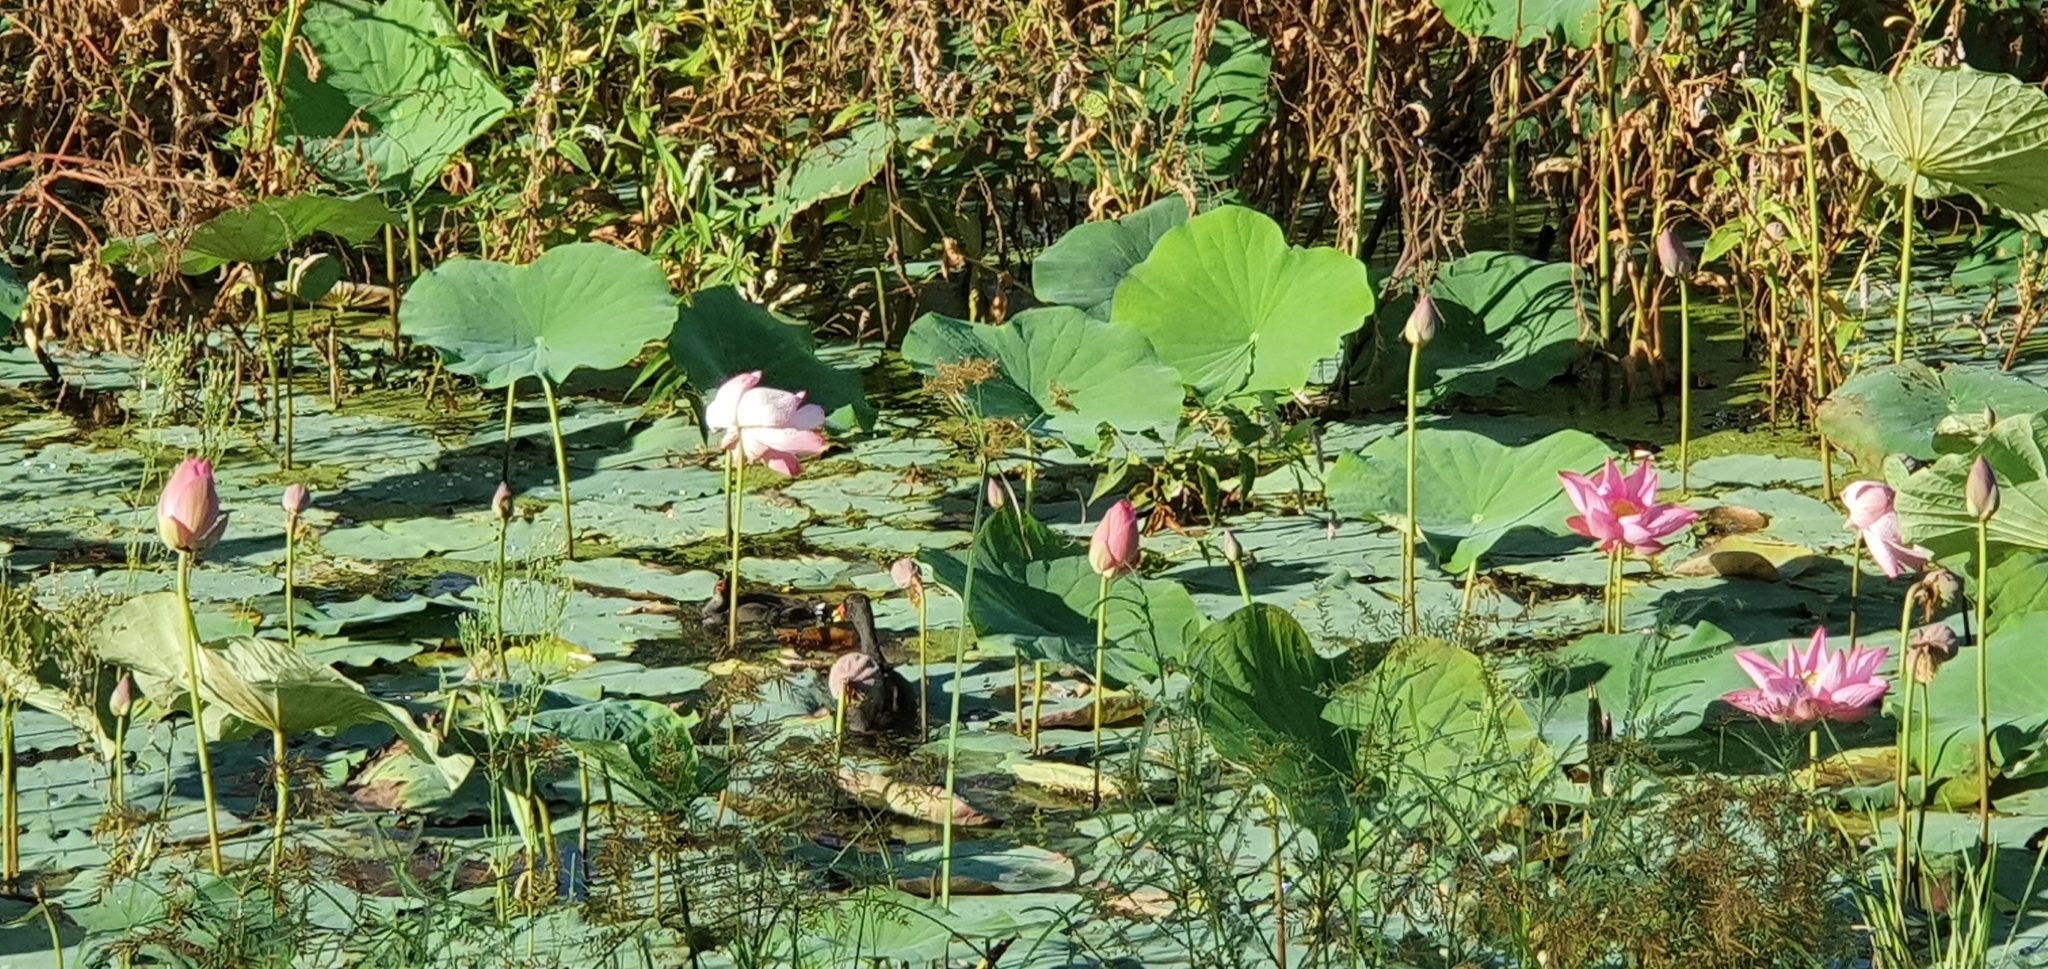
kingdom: Animalia
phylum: Chordata
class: Aves
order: Gruiformes
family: Rallidae
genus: Gallinula
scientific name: Gallinula tenebrosa
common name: Dusky moorhen
